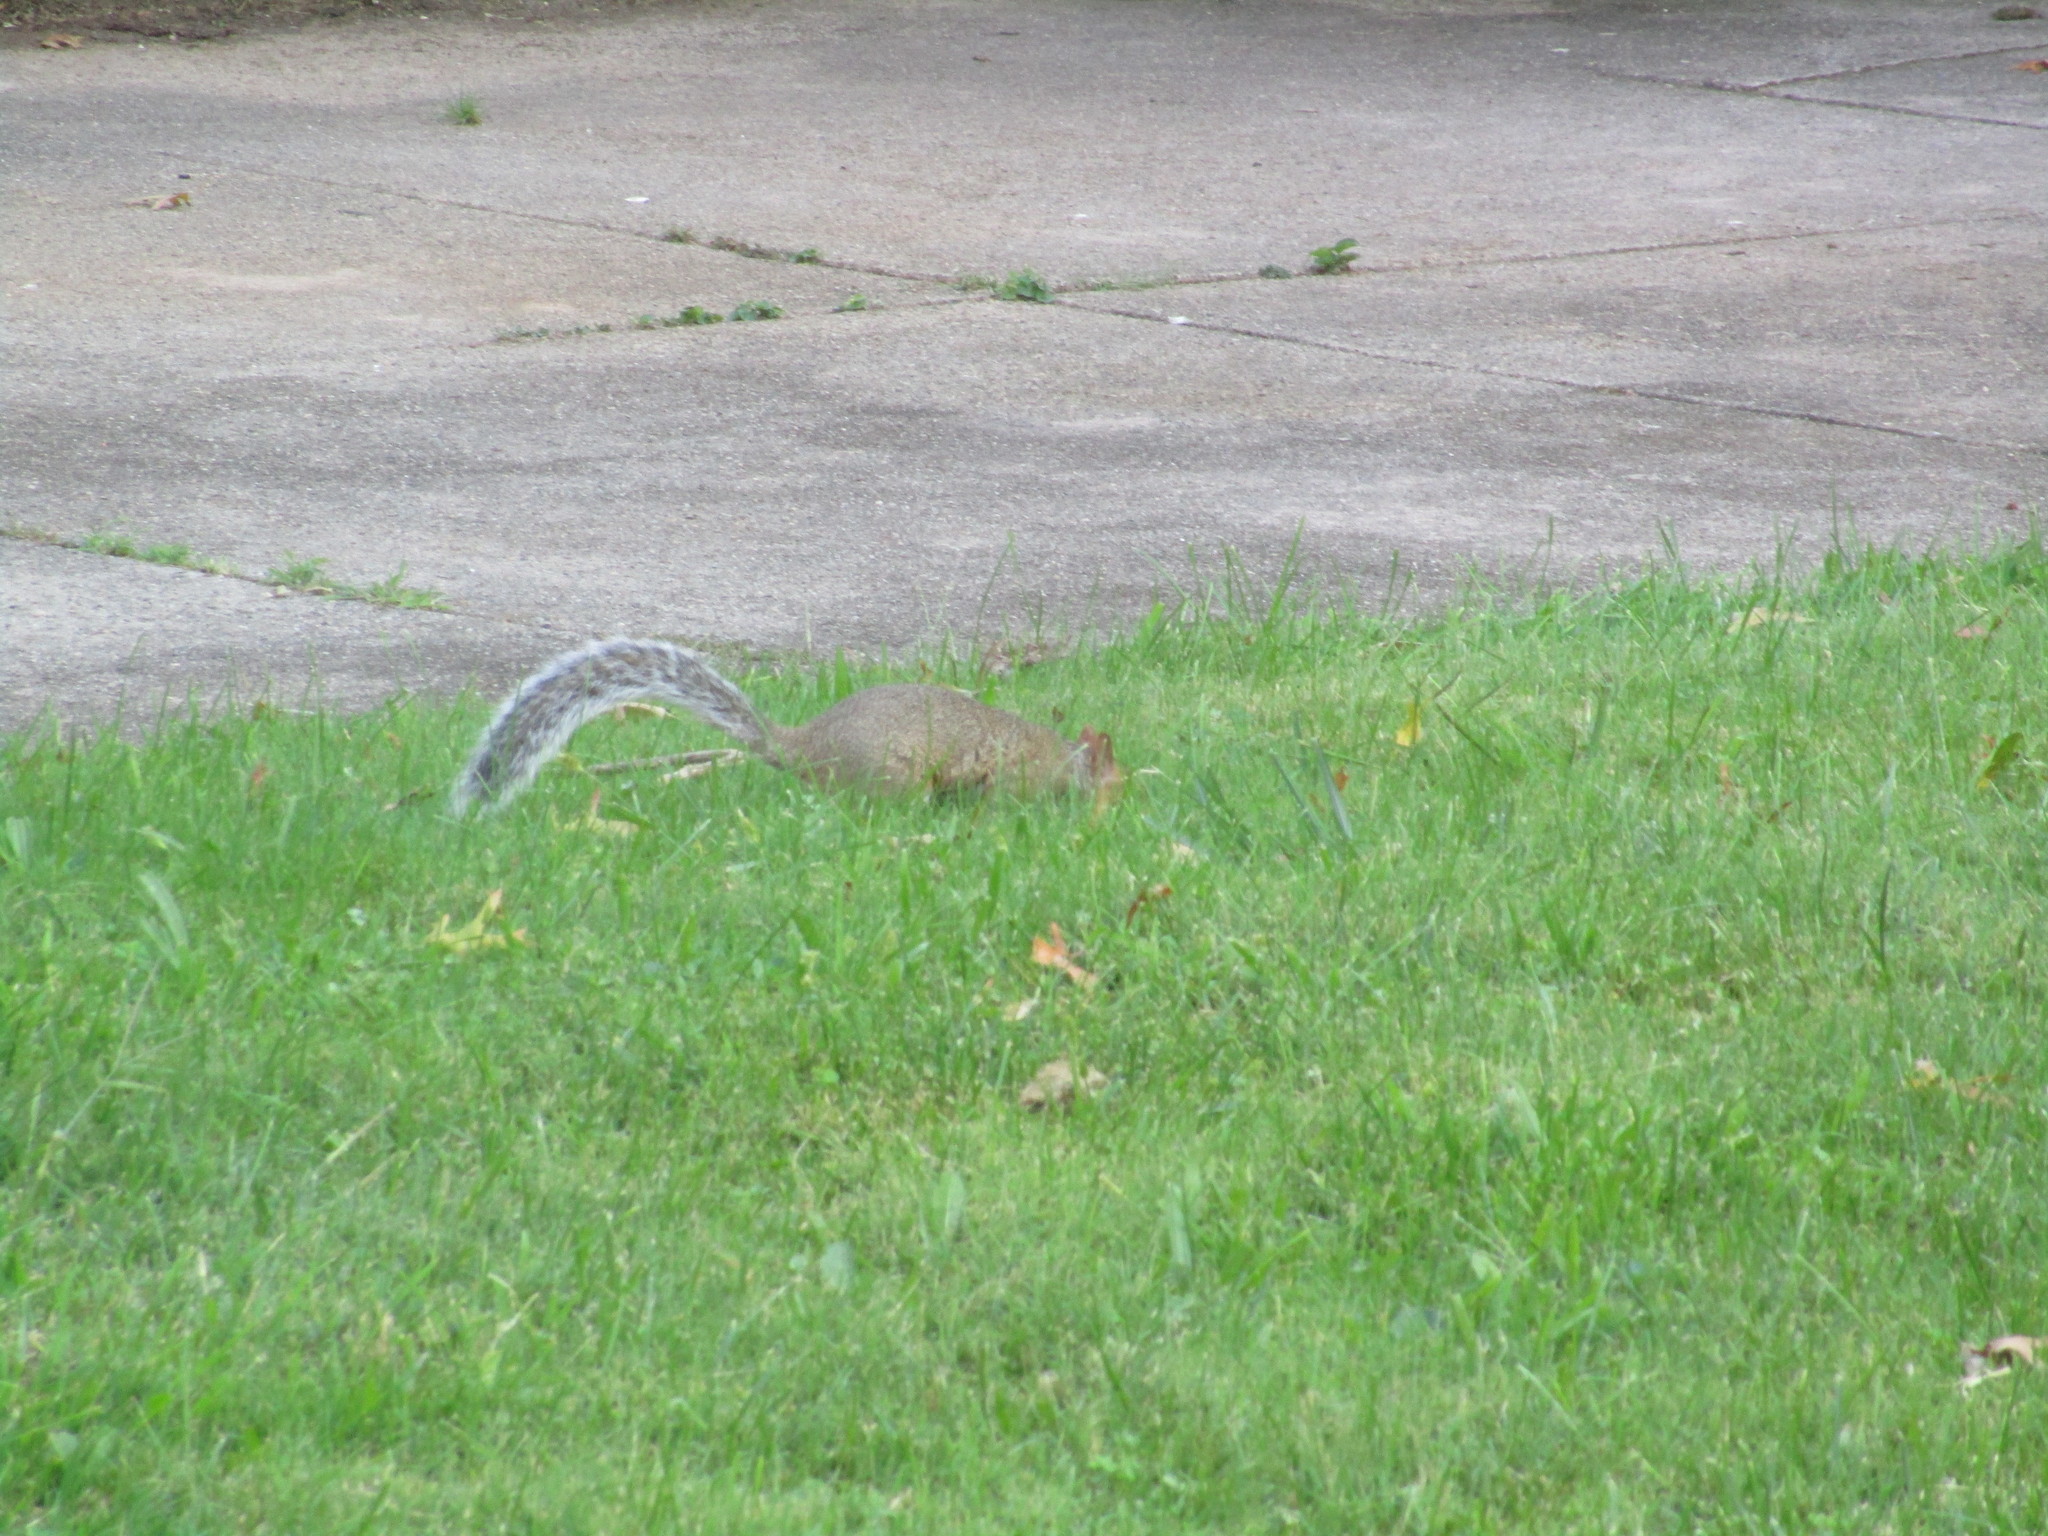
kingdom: Animalia
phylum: Chordata
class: Mammalia
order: Rodentia
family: Sciuridae
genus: Sciurus
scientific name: Sciurus carolinensis
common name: Eastern gray squirrel
